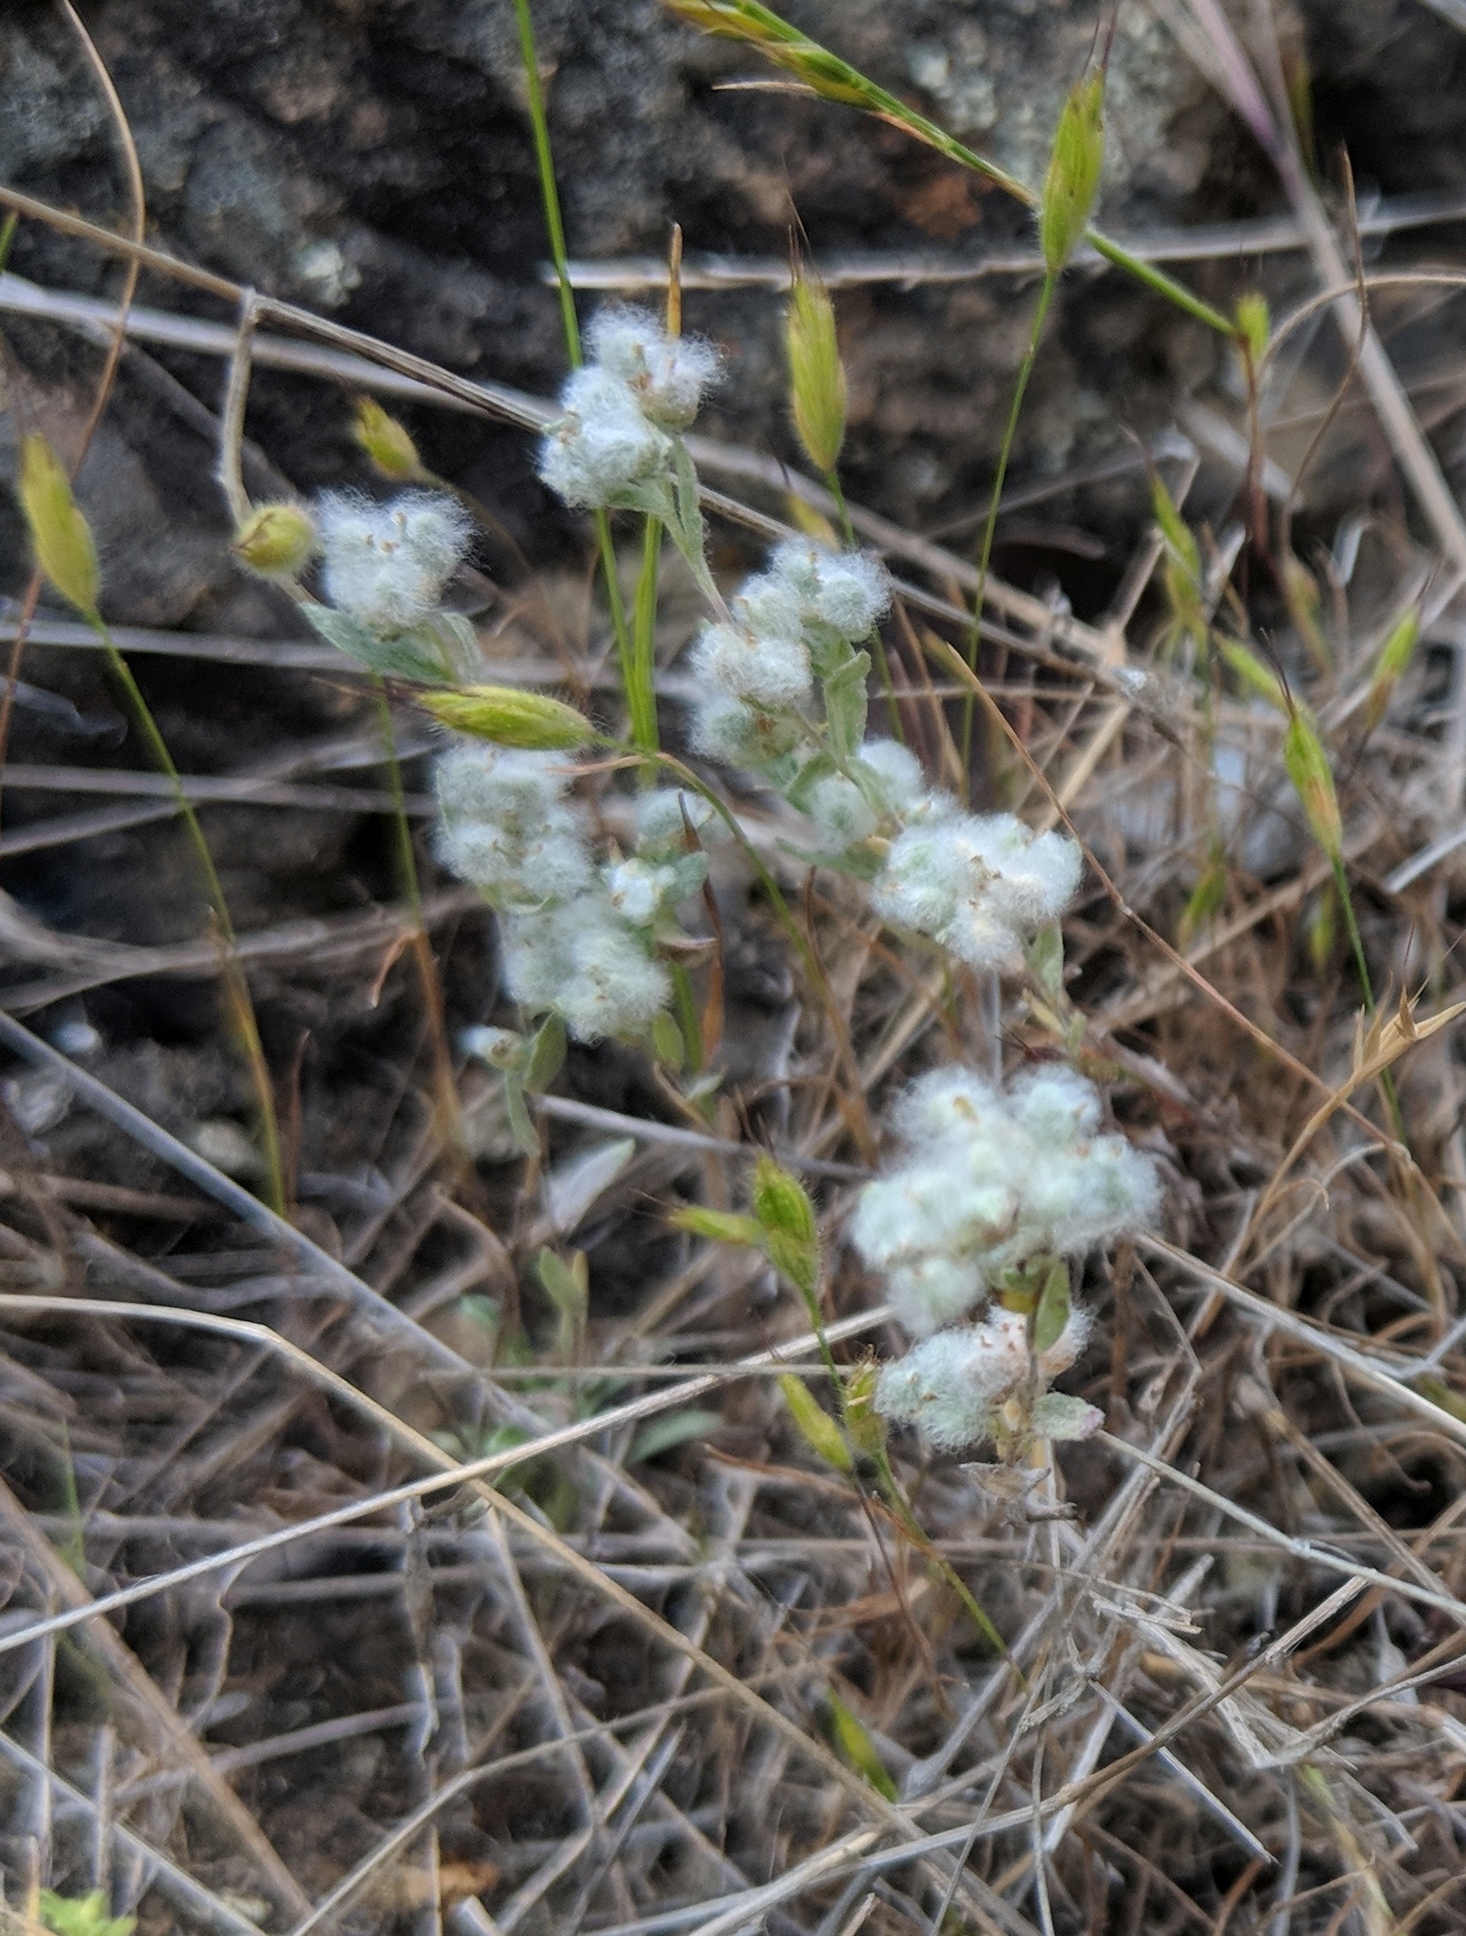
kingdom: Plantae
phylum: Tracheophyta
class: Magnoliopsida
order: Asterales
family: Asteraceae
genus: Bombycilaena
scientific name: Bombycilaena californica
